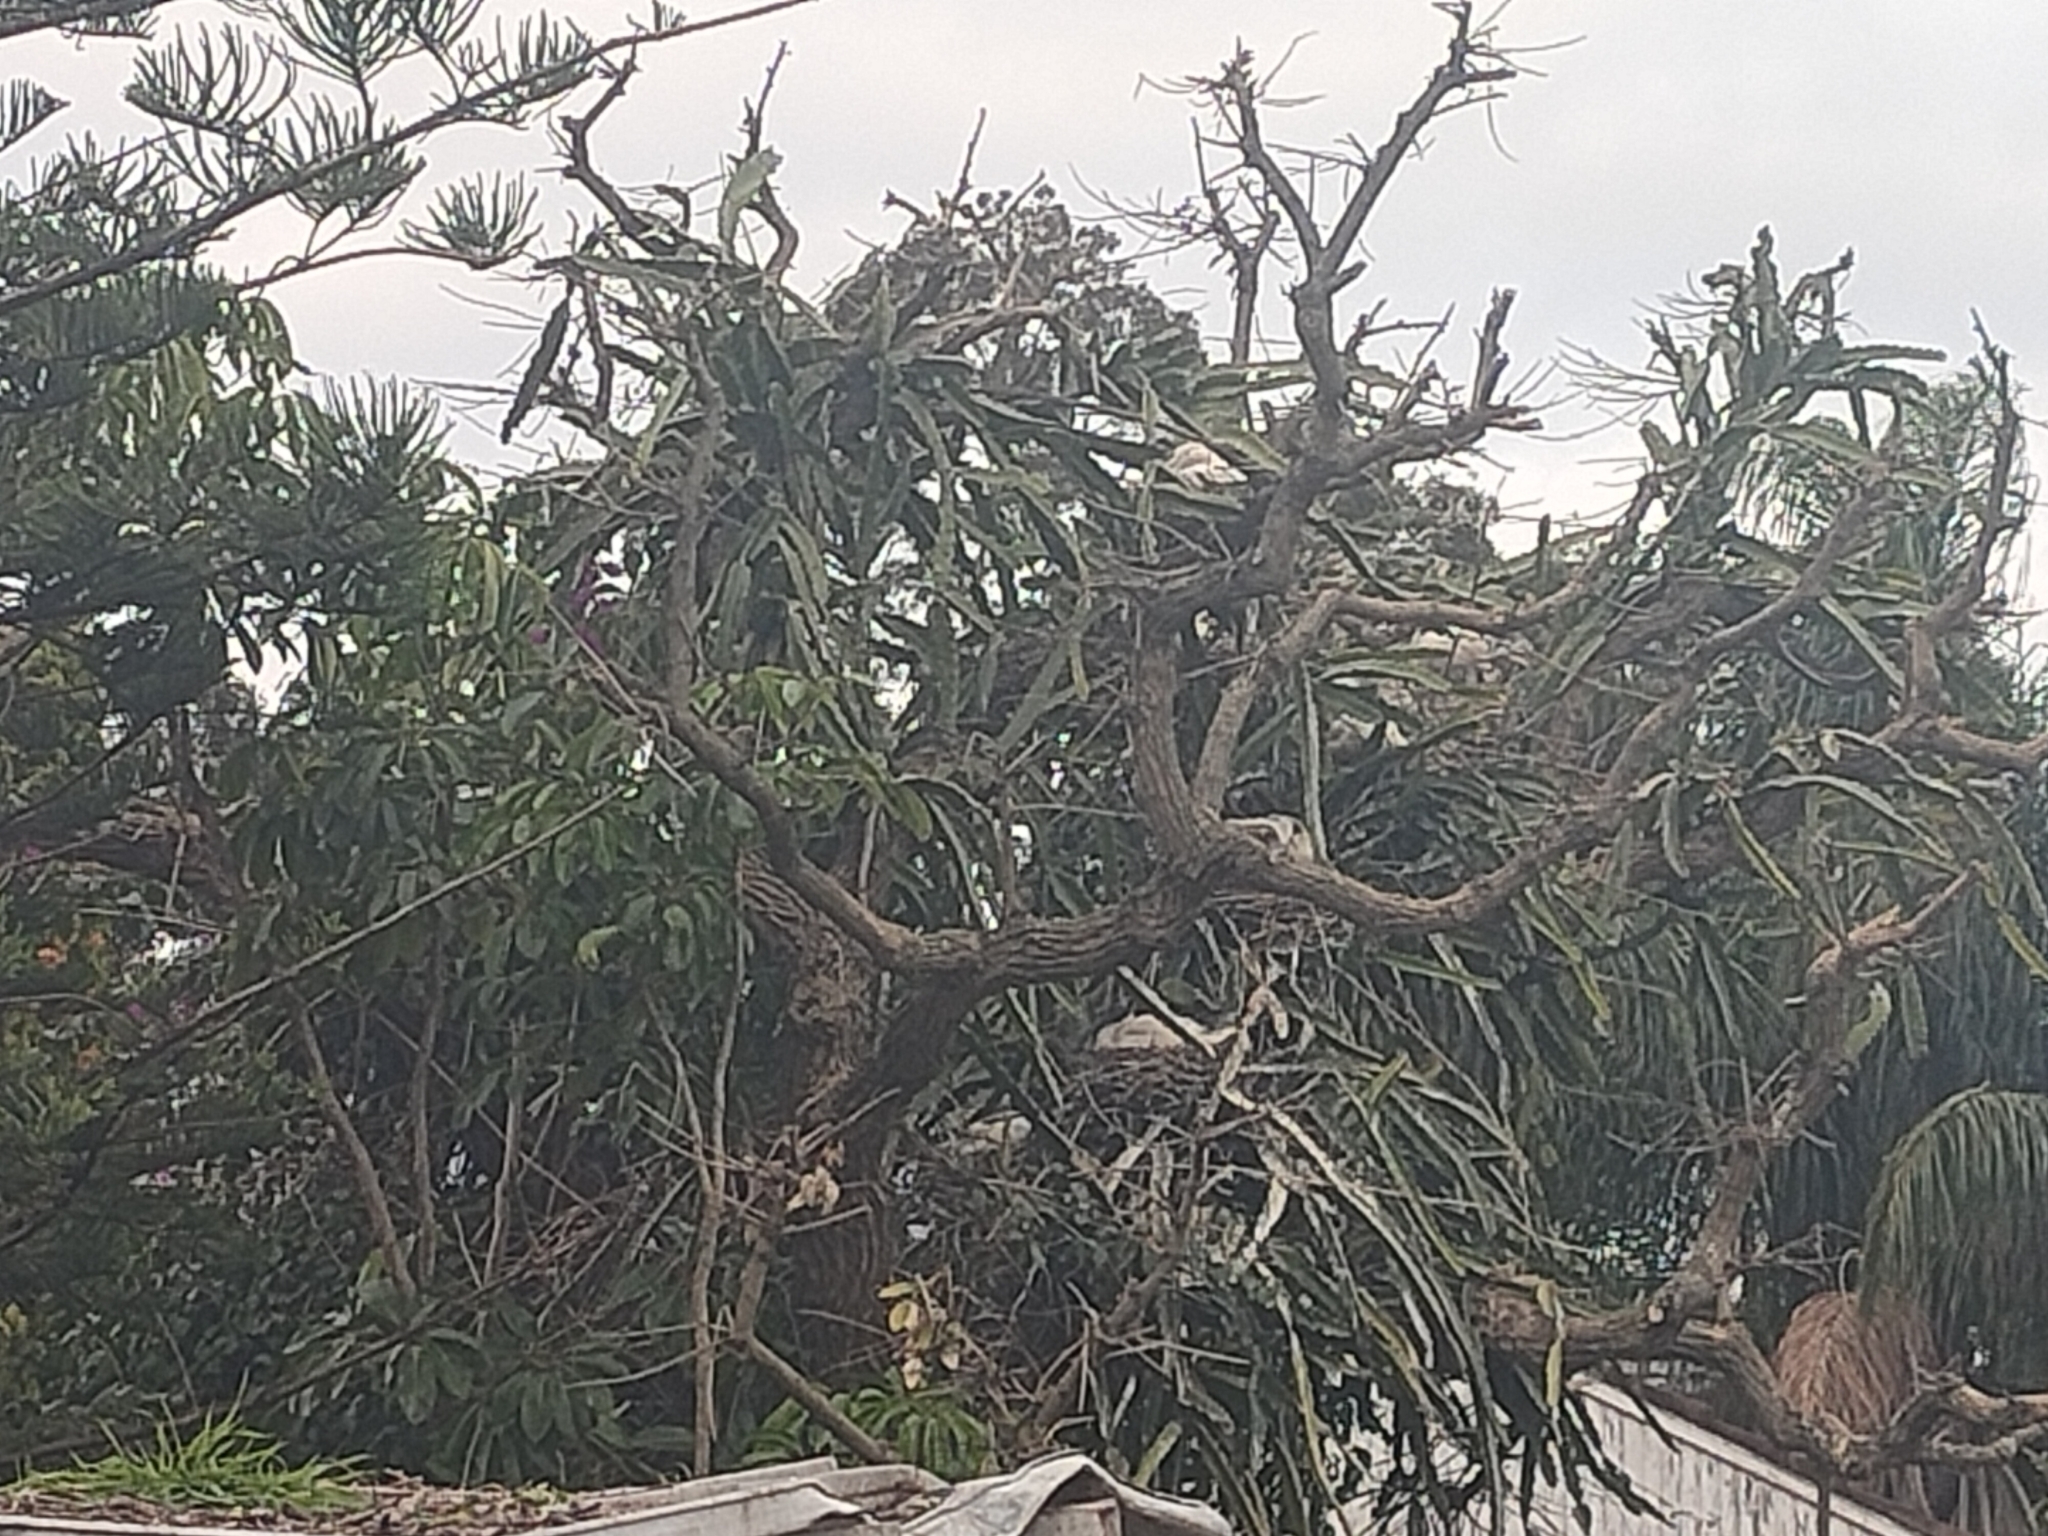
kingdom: Animalia
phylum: Chordata
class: Aves
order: Pelecaniformes
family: Threskiornithidae
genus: Threskiornis
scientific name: Threskiornis molucca
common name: Australian white ibis
